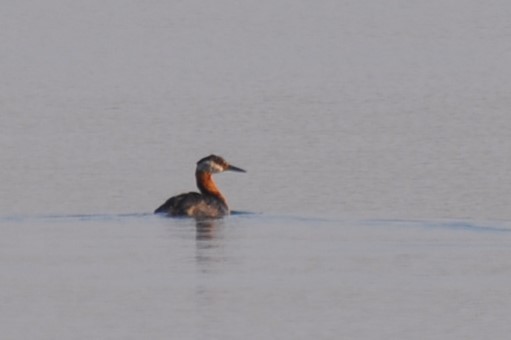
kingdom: Animalia
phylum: Chordata
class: Aves
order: Podicipediformes
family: Podicipedidae
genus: Podiceps
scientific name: Podiceps grisegena
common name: Red-necked grebe
